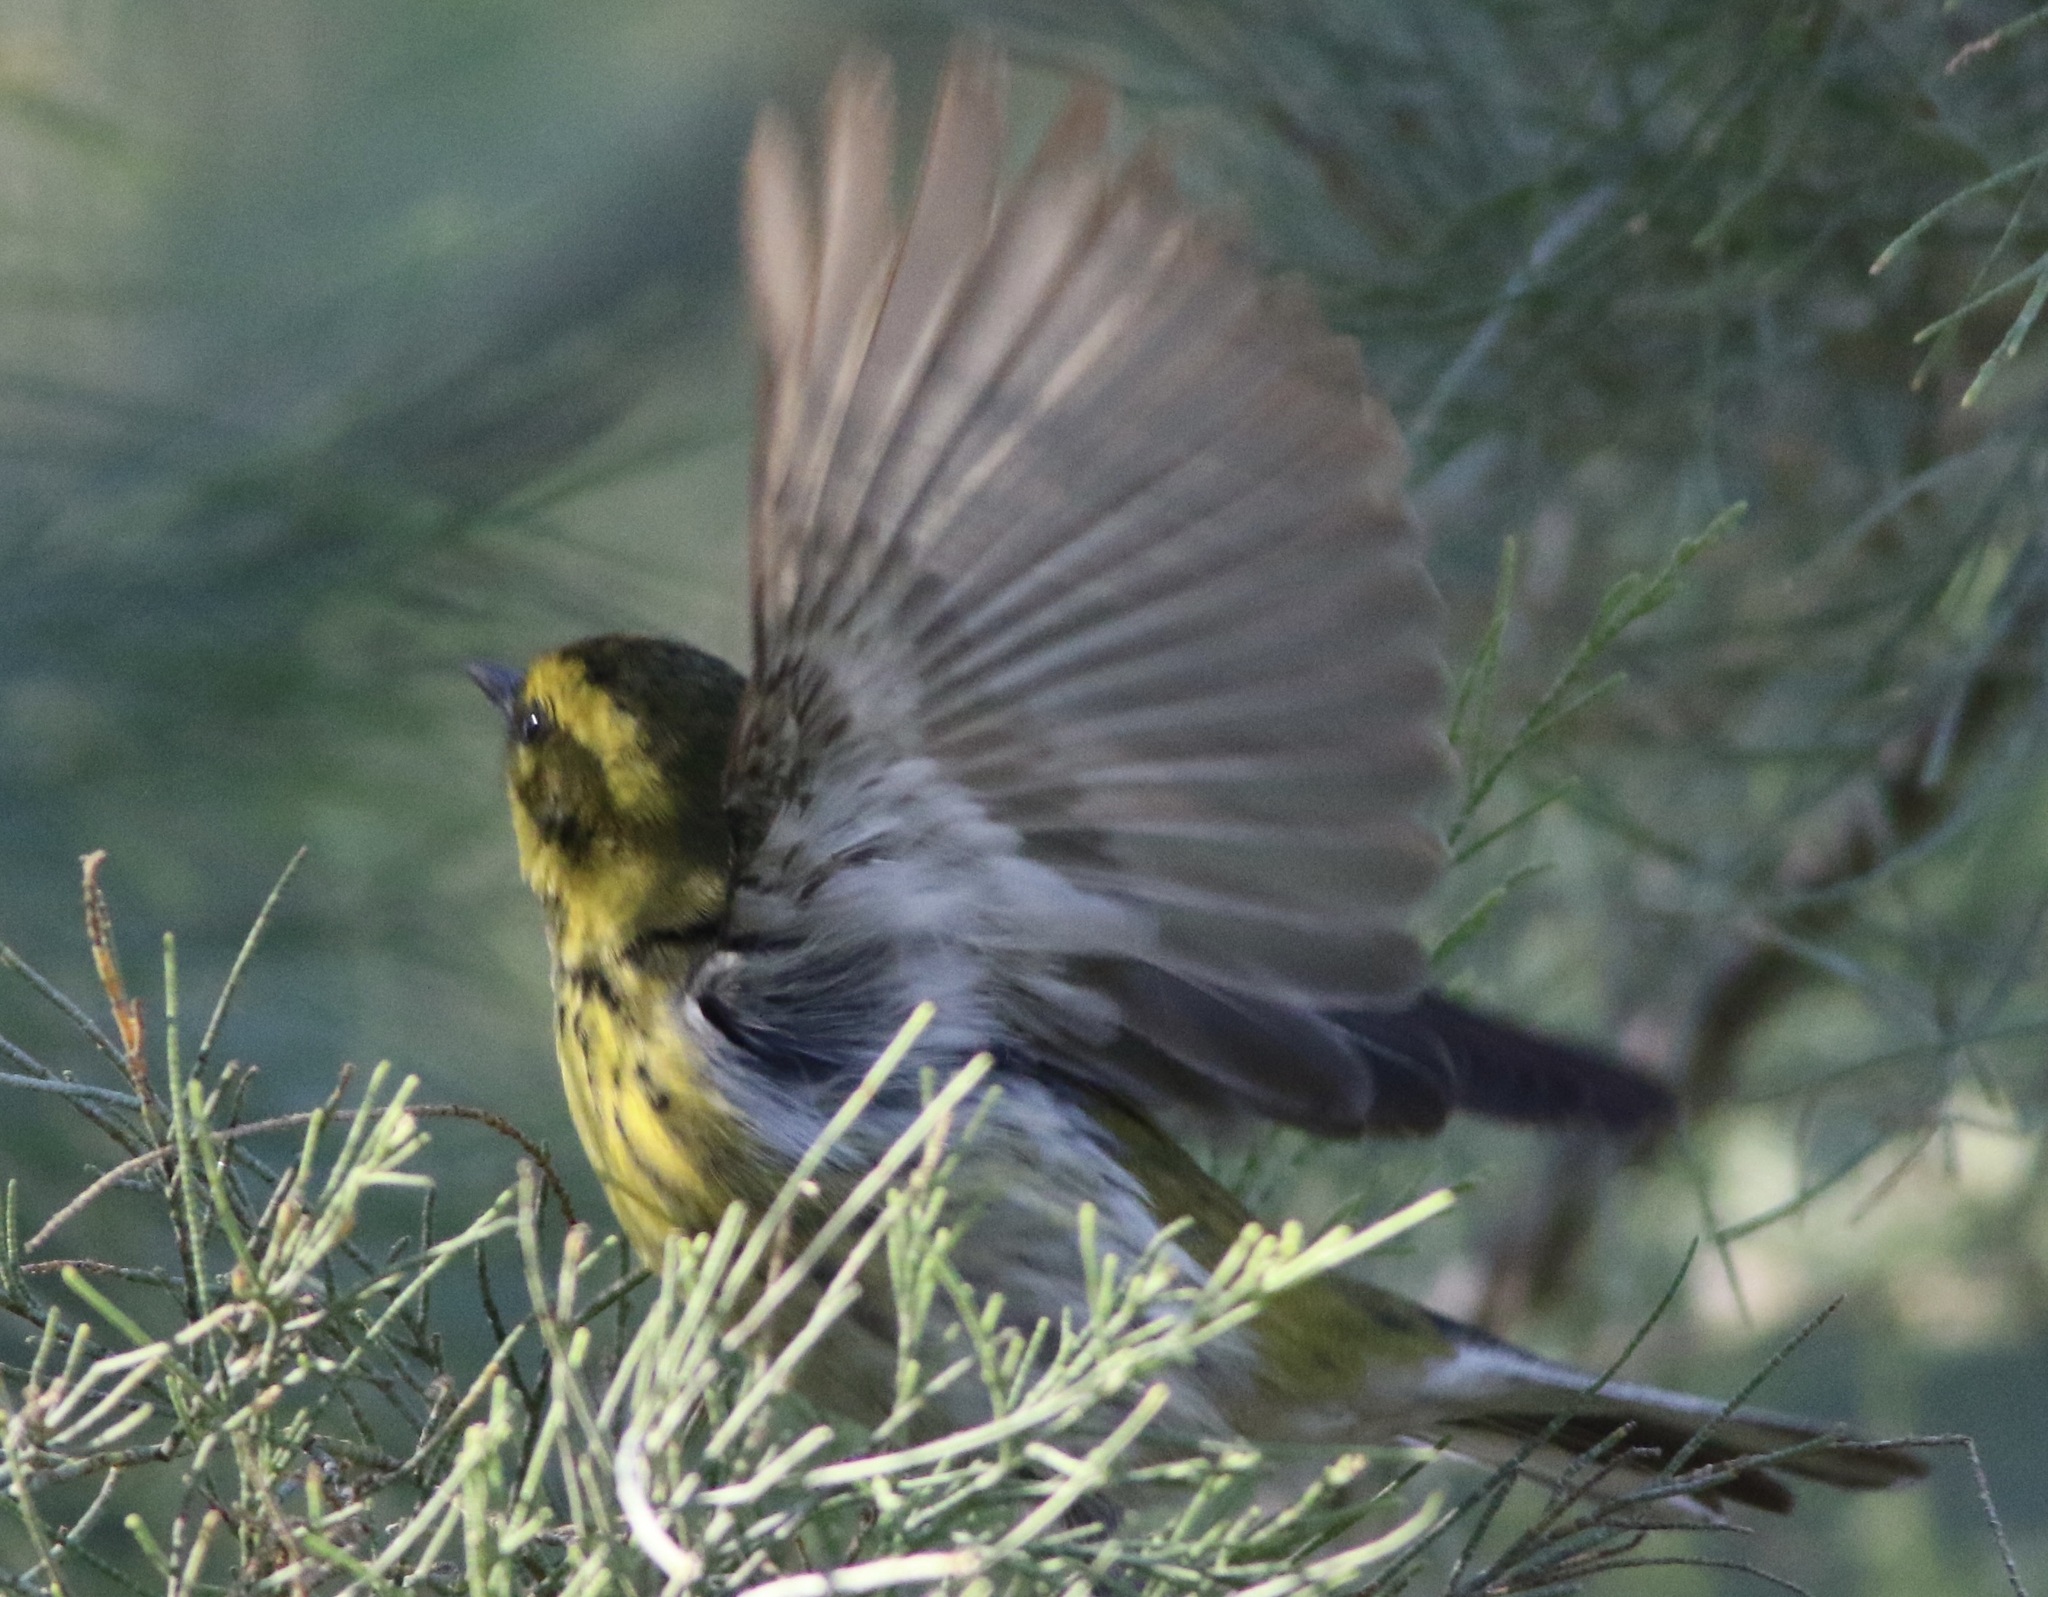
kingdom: Animalia
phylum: Chordata
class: Aves
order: Passeriformes
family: Parulidae
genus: Setophaga
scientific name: Setophaga townsendi
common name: Townsend's warbler
